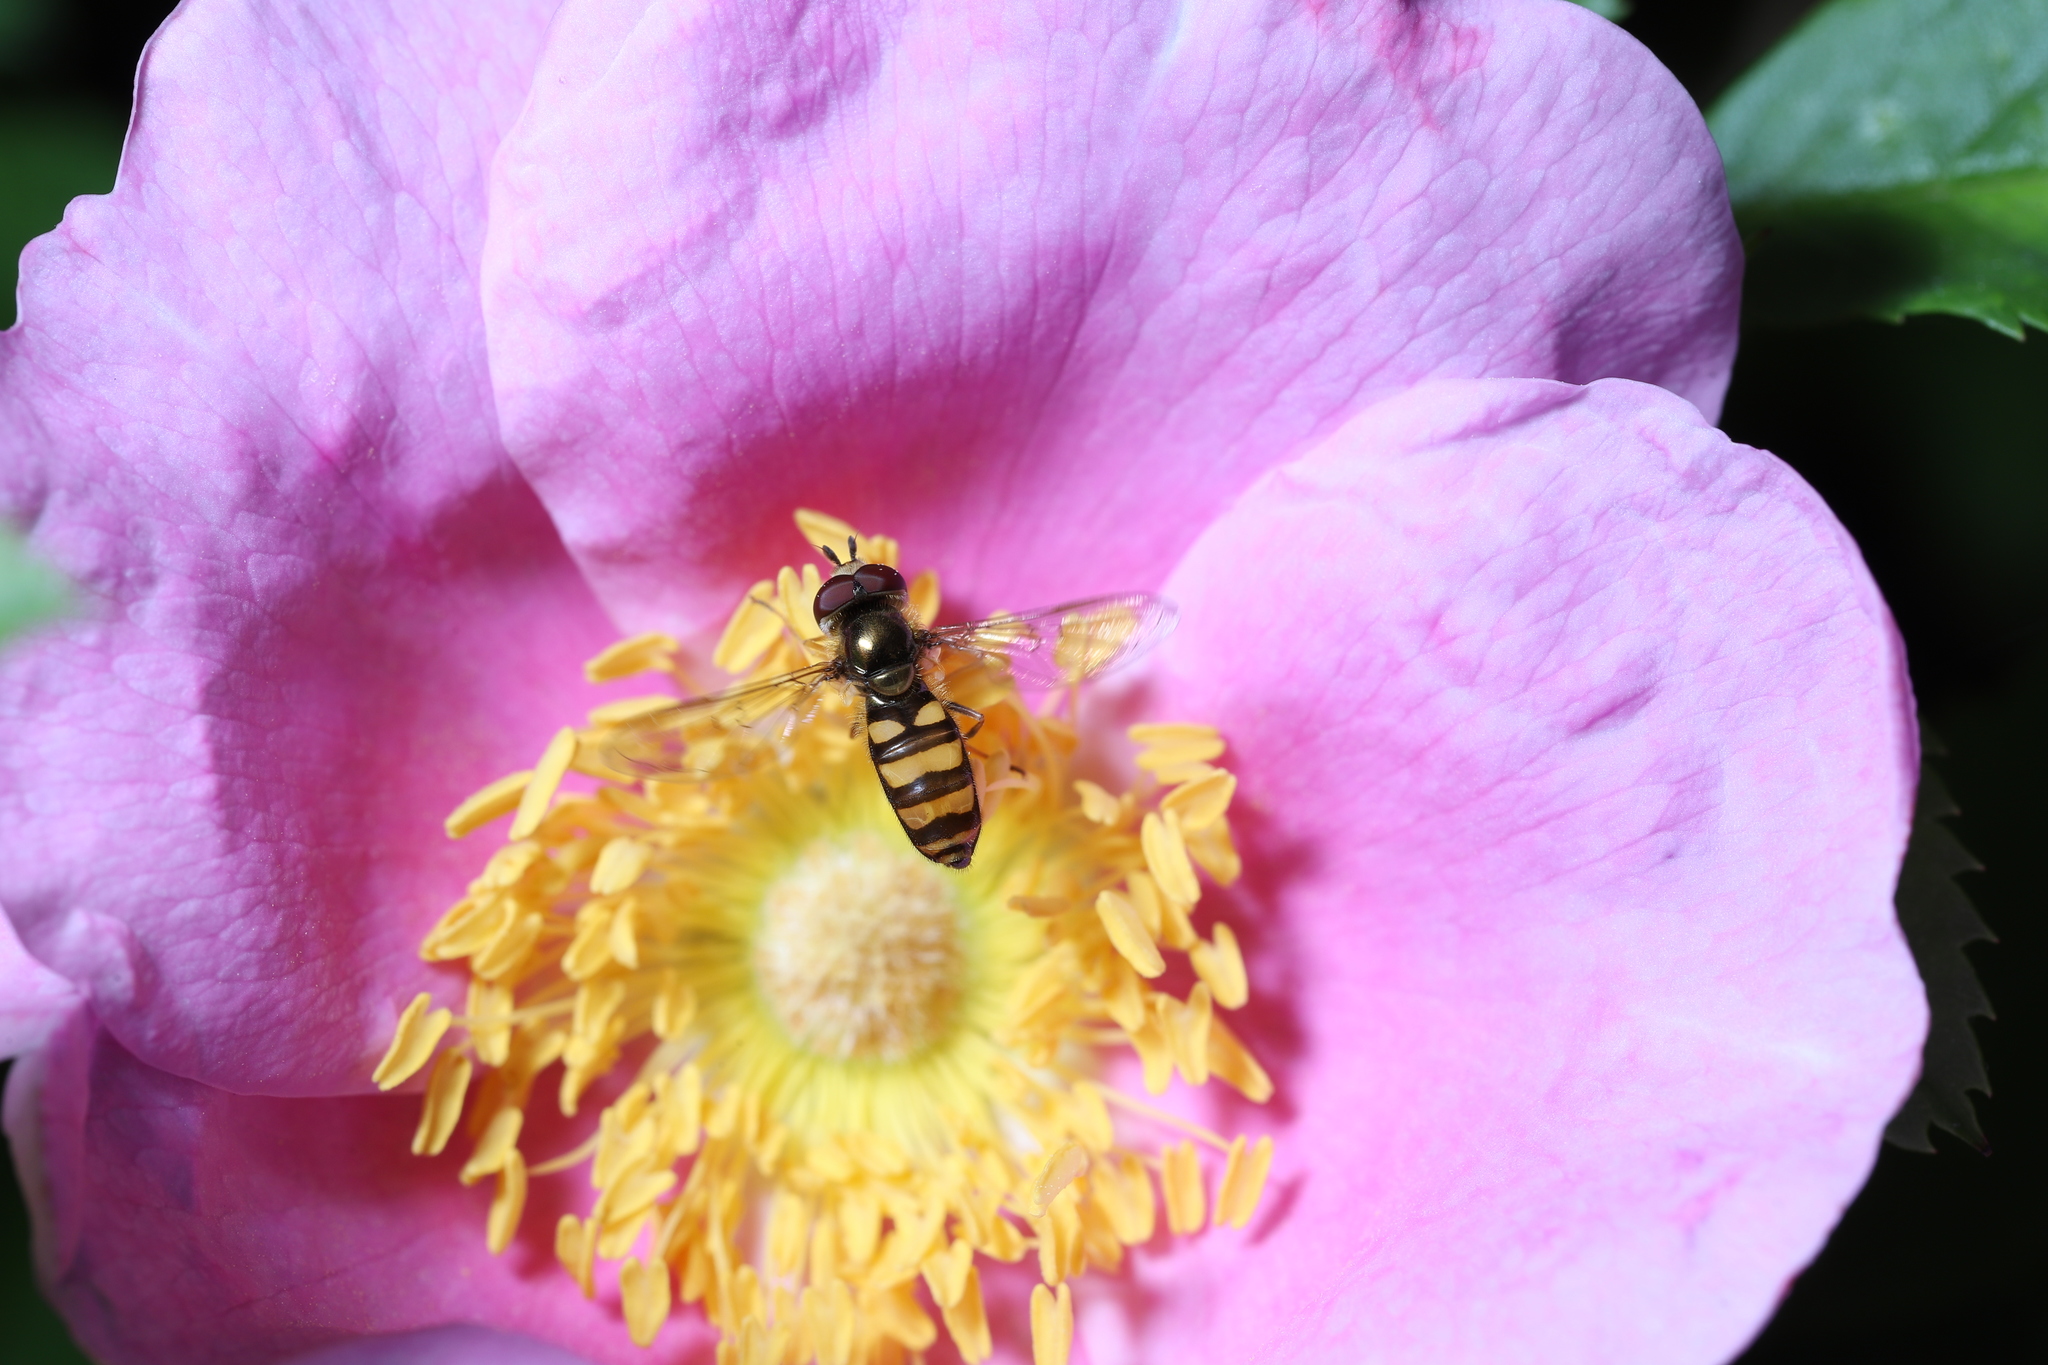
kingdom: Animalia
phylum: Arthropoda
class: Insecta
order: Diptera
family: Syrphidae
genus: Eupeodes
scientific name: Eupeodes
